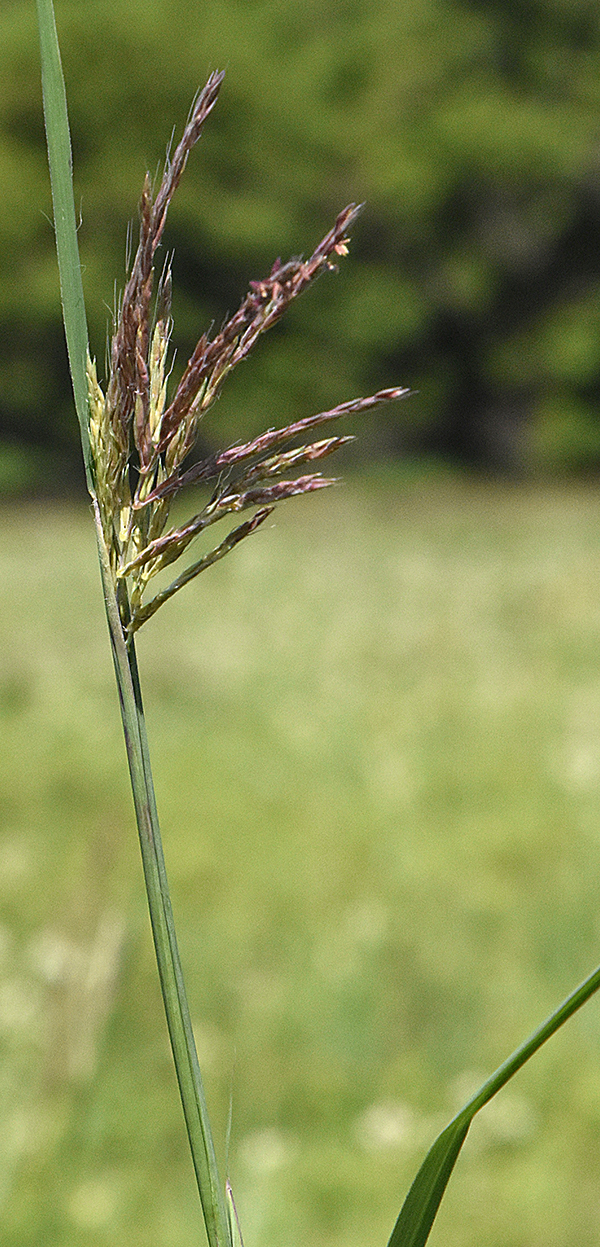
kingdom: Plantae
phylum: Tracheophyta
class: Liliopsida
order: Poales
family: Poaceae
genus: Andropogon
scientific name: Andropogon gerardi
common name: Big bluestem
